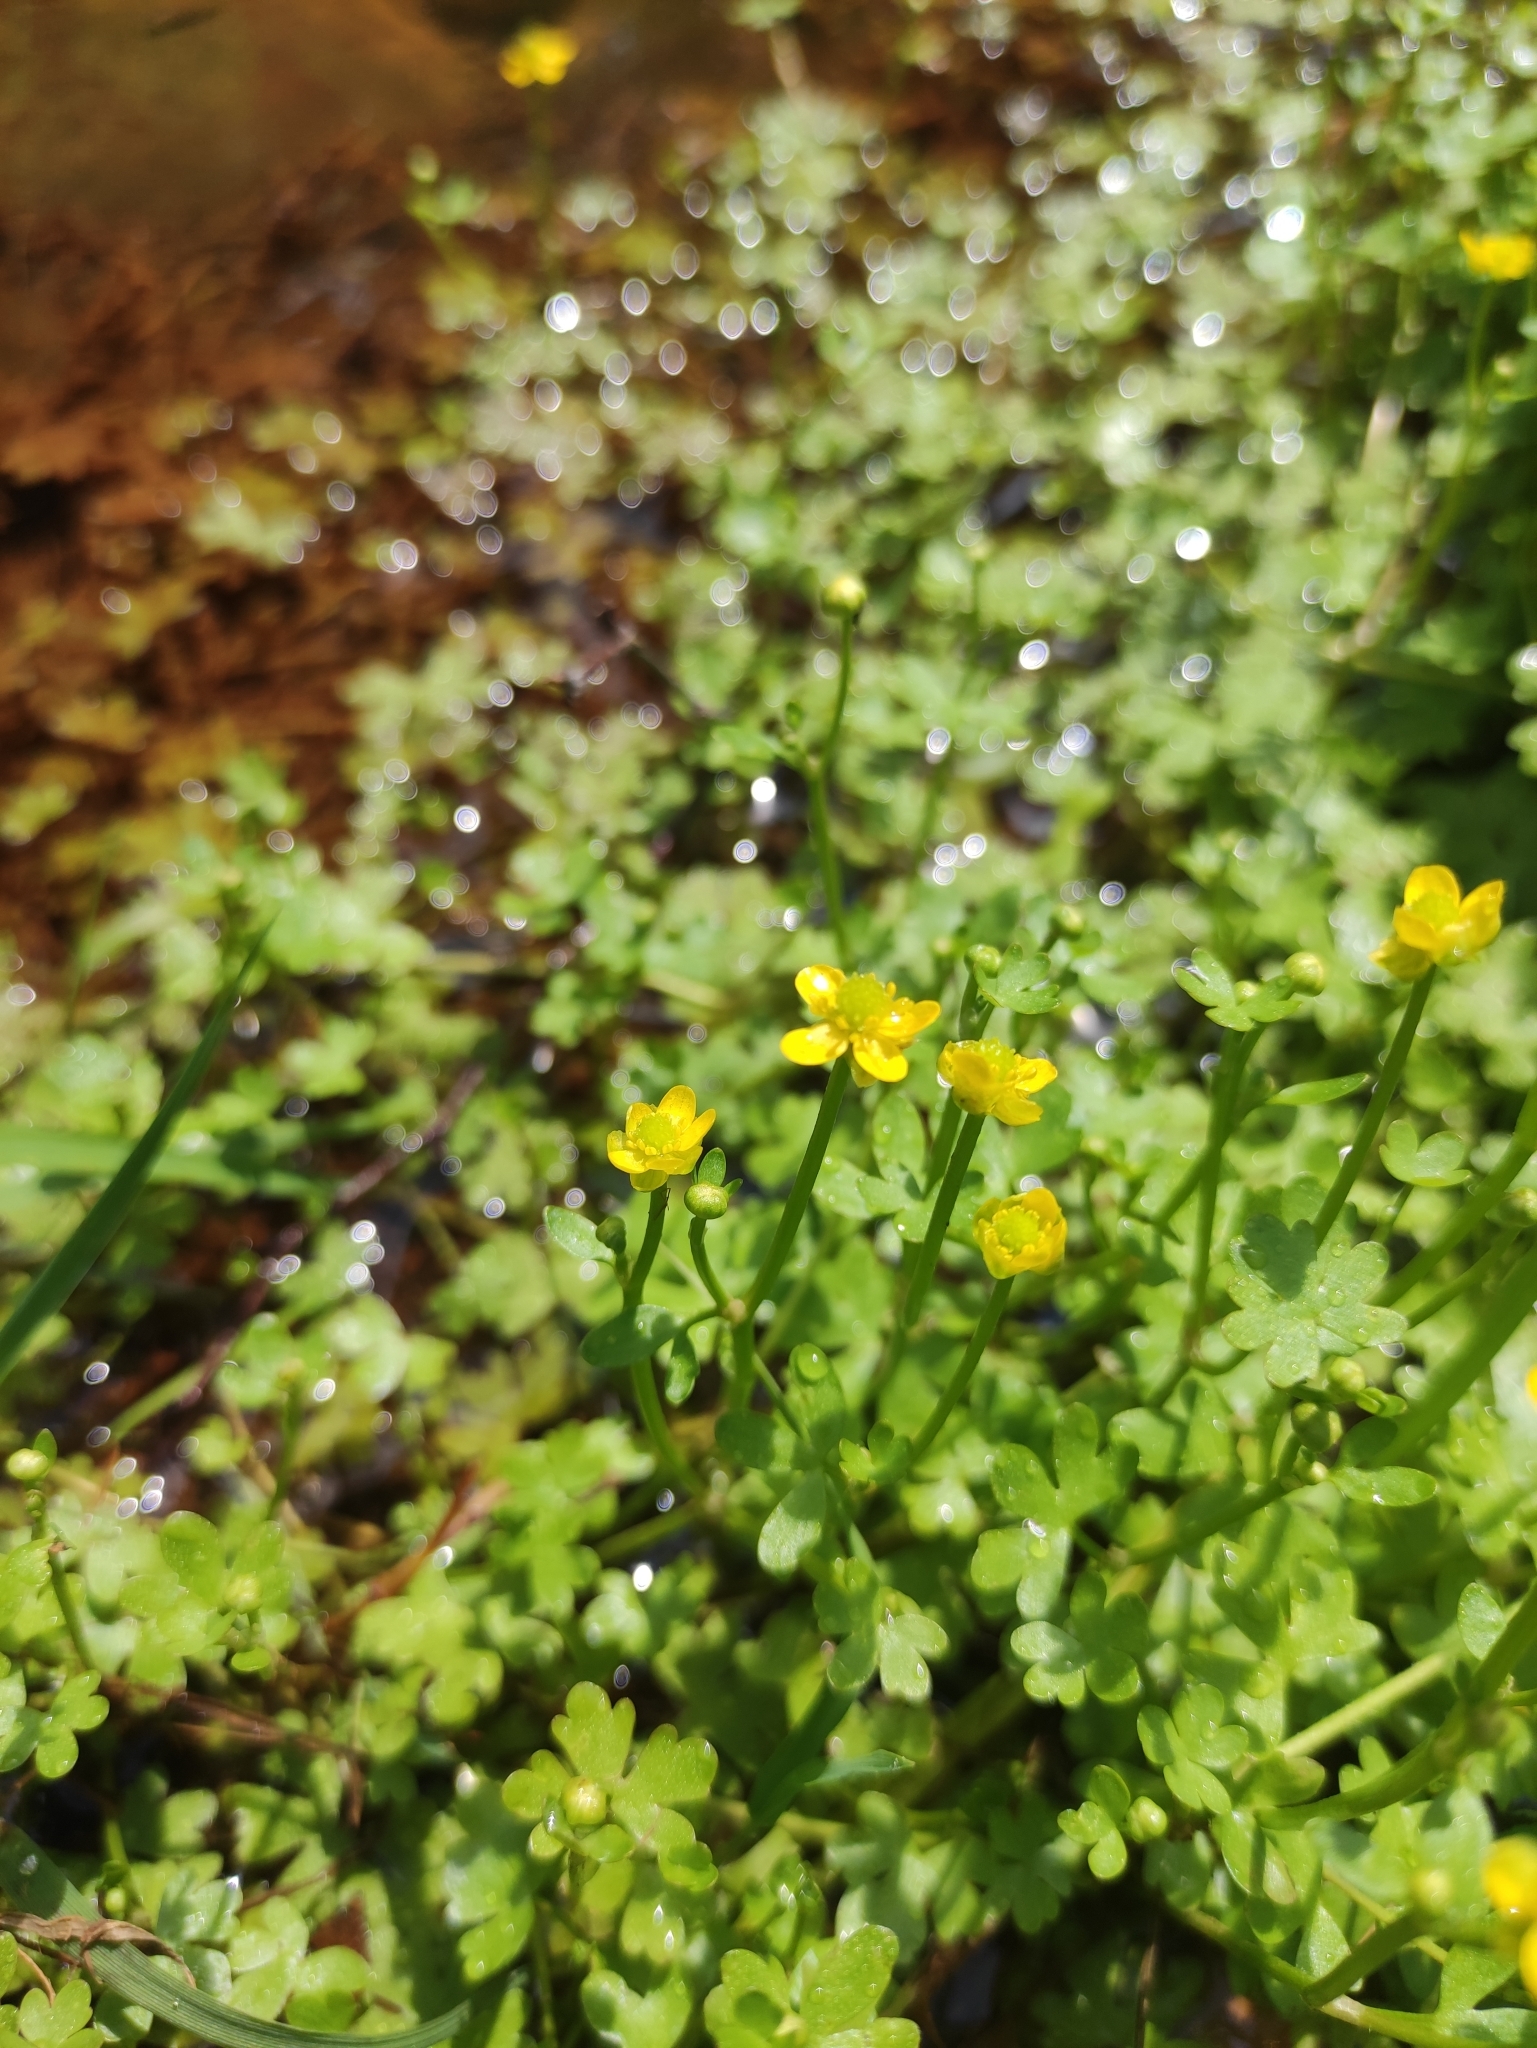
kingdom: Plantae
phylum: Tracheophyta
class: Magnoliopsida
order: Ranunculales
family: Ranunculaceae
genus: Ranunculus
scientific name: Ranunculus gmelinii
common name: Gmelin's buttercup
